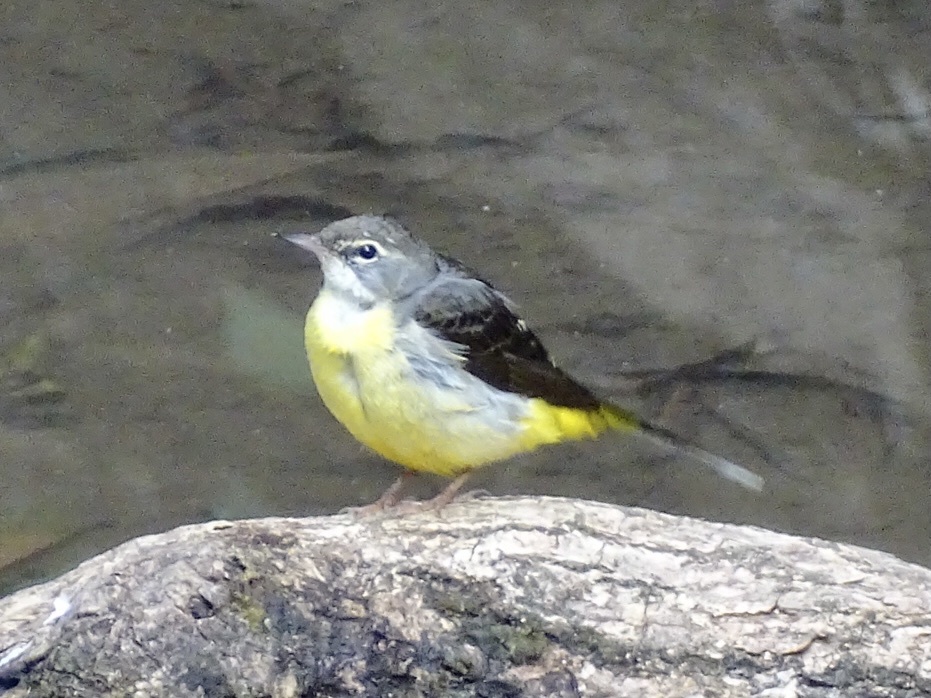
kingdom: Animalia
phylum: Chordata
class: Aves
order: Passeriformes
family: Motacillidae
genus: Motacilla
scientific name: Motacilla cinerea
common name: Grey wagtail
